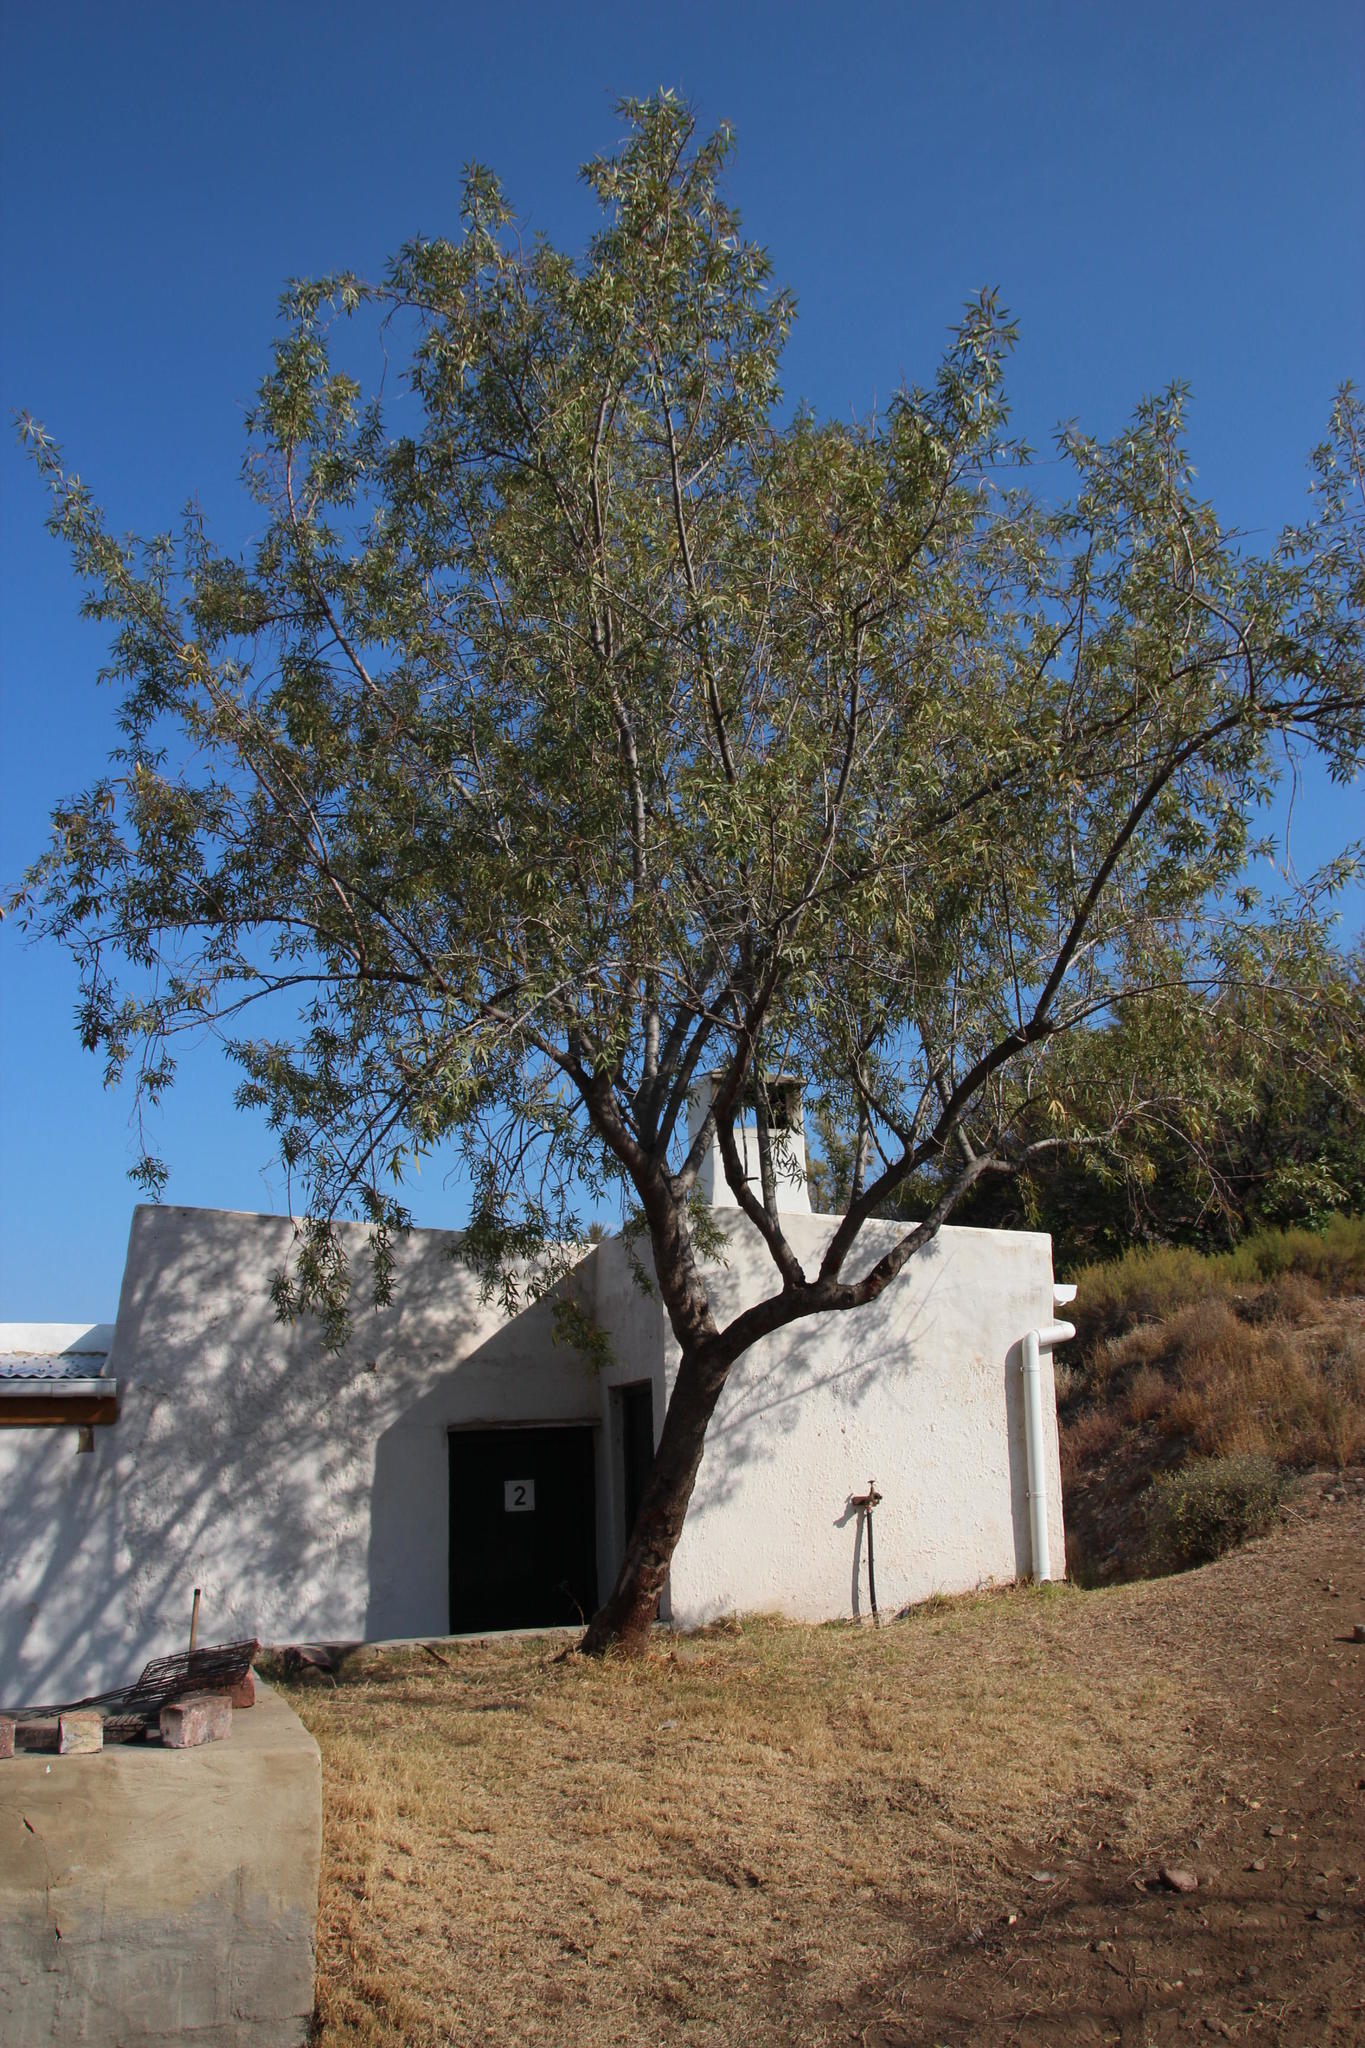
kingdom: Plantae
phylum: Tracheophyta
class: Magnoliopsida
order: Sapindales
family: Anacardiaceae
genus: Searsia
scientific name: Searsia lancea
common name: Cashew
